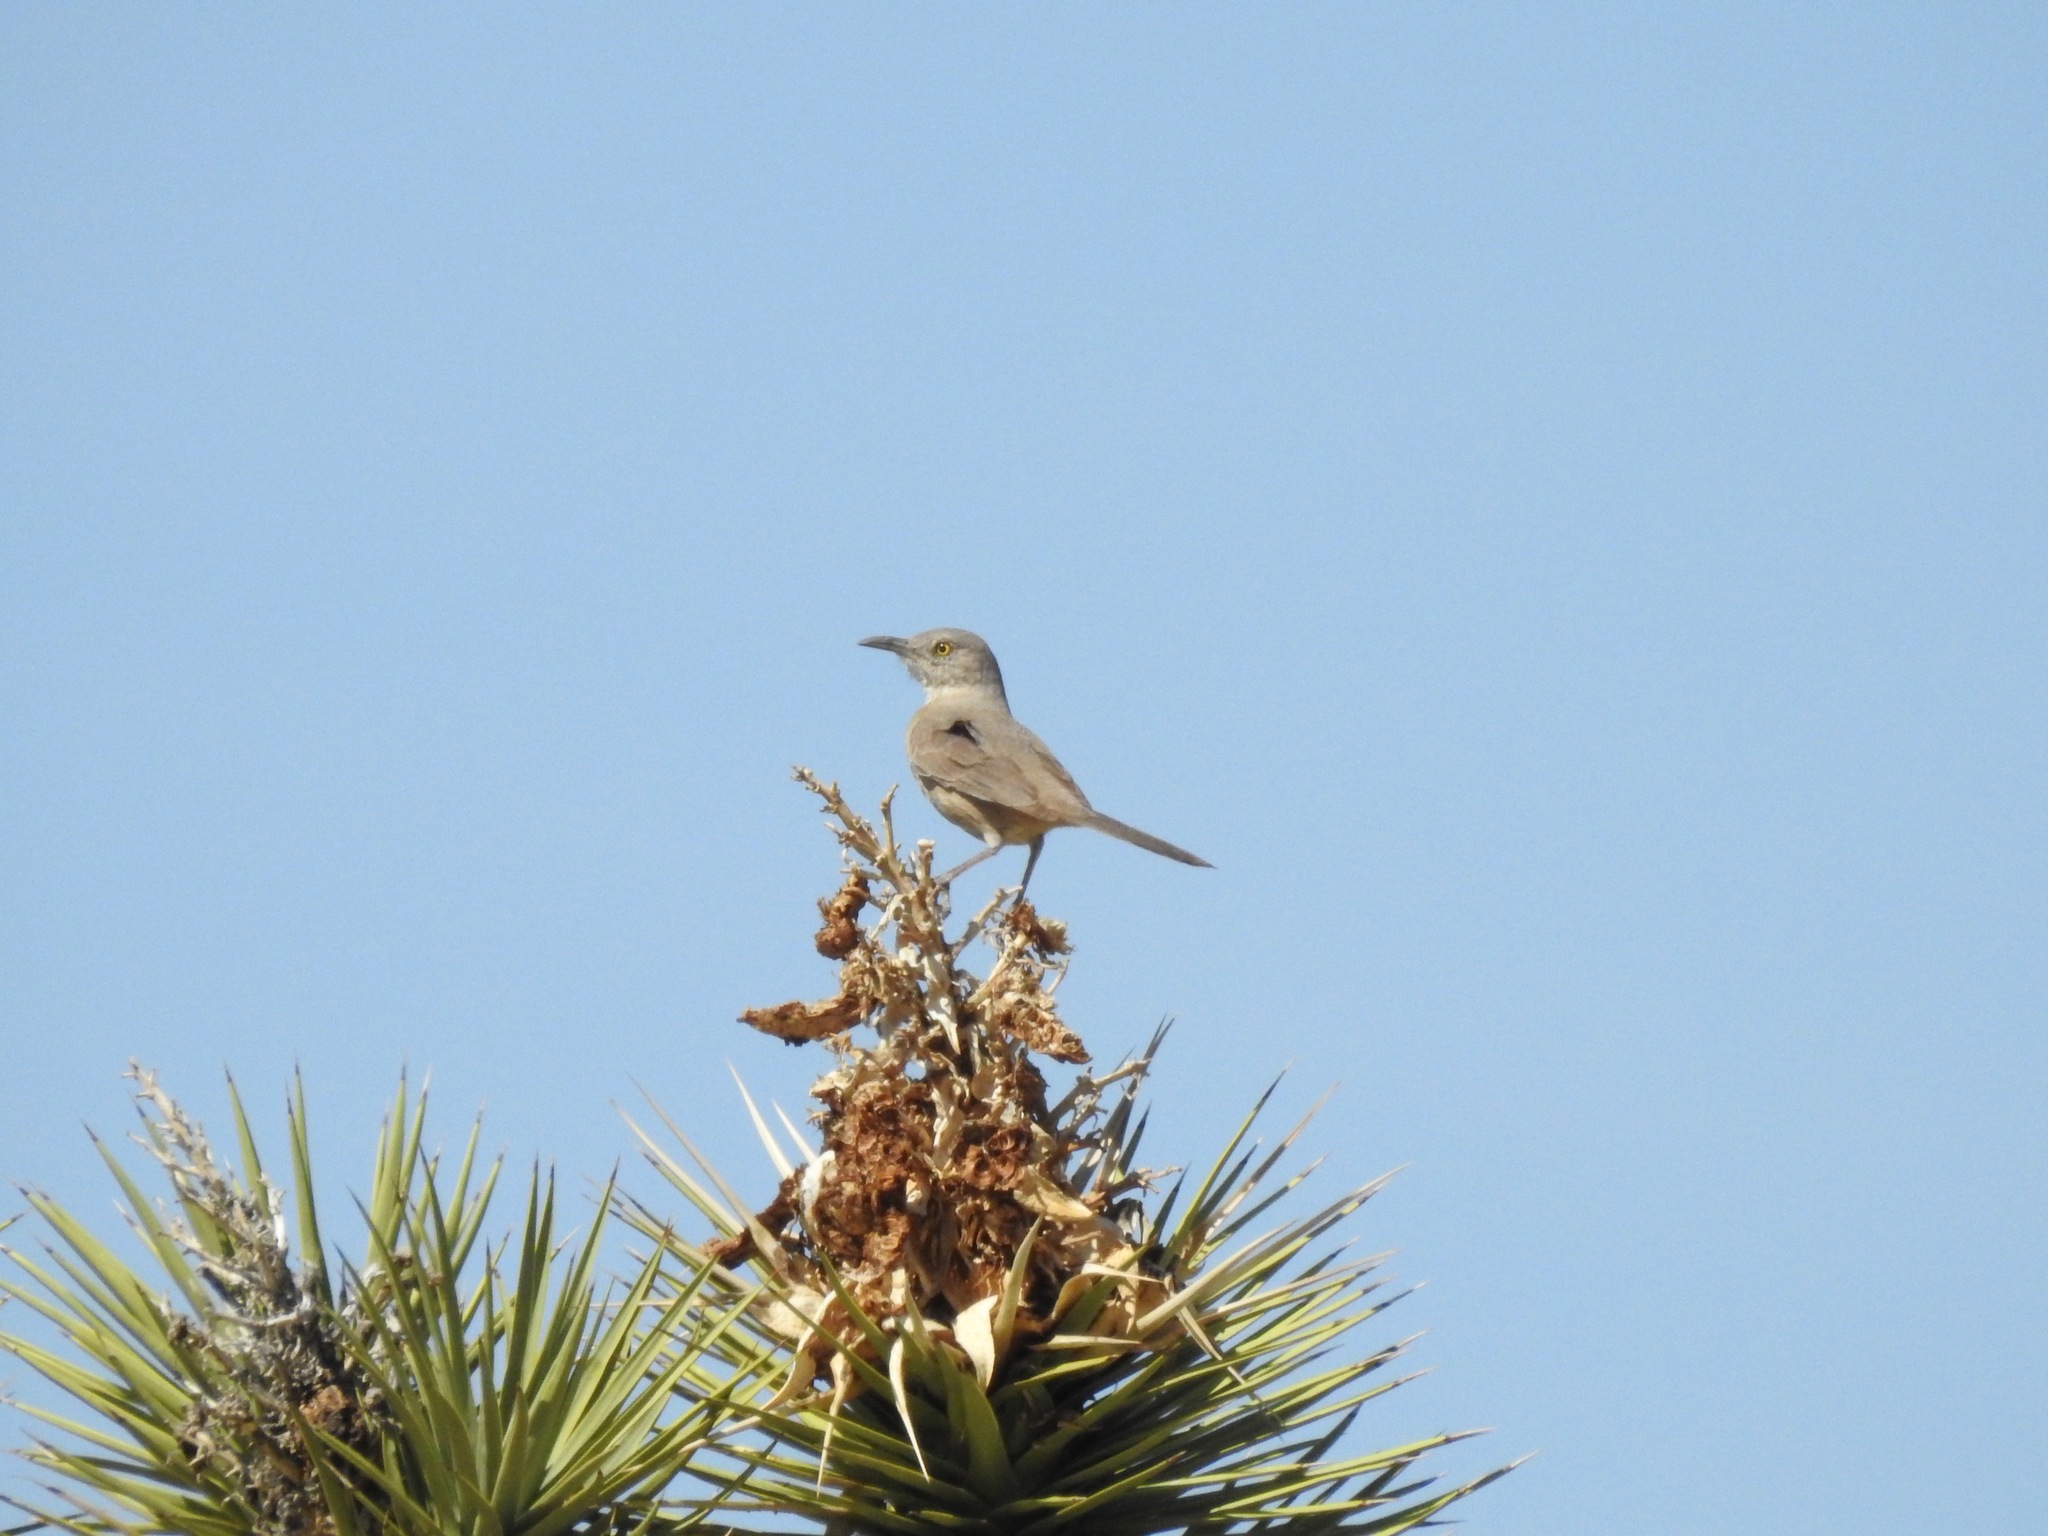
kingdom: Animalia
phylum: Chordata
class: Aves
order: Passeriformes
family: Mimidae
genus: Toxostoma
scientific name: Toxostoma bendirei
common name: Bendire's thrasher
